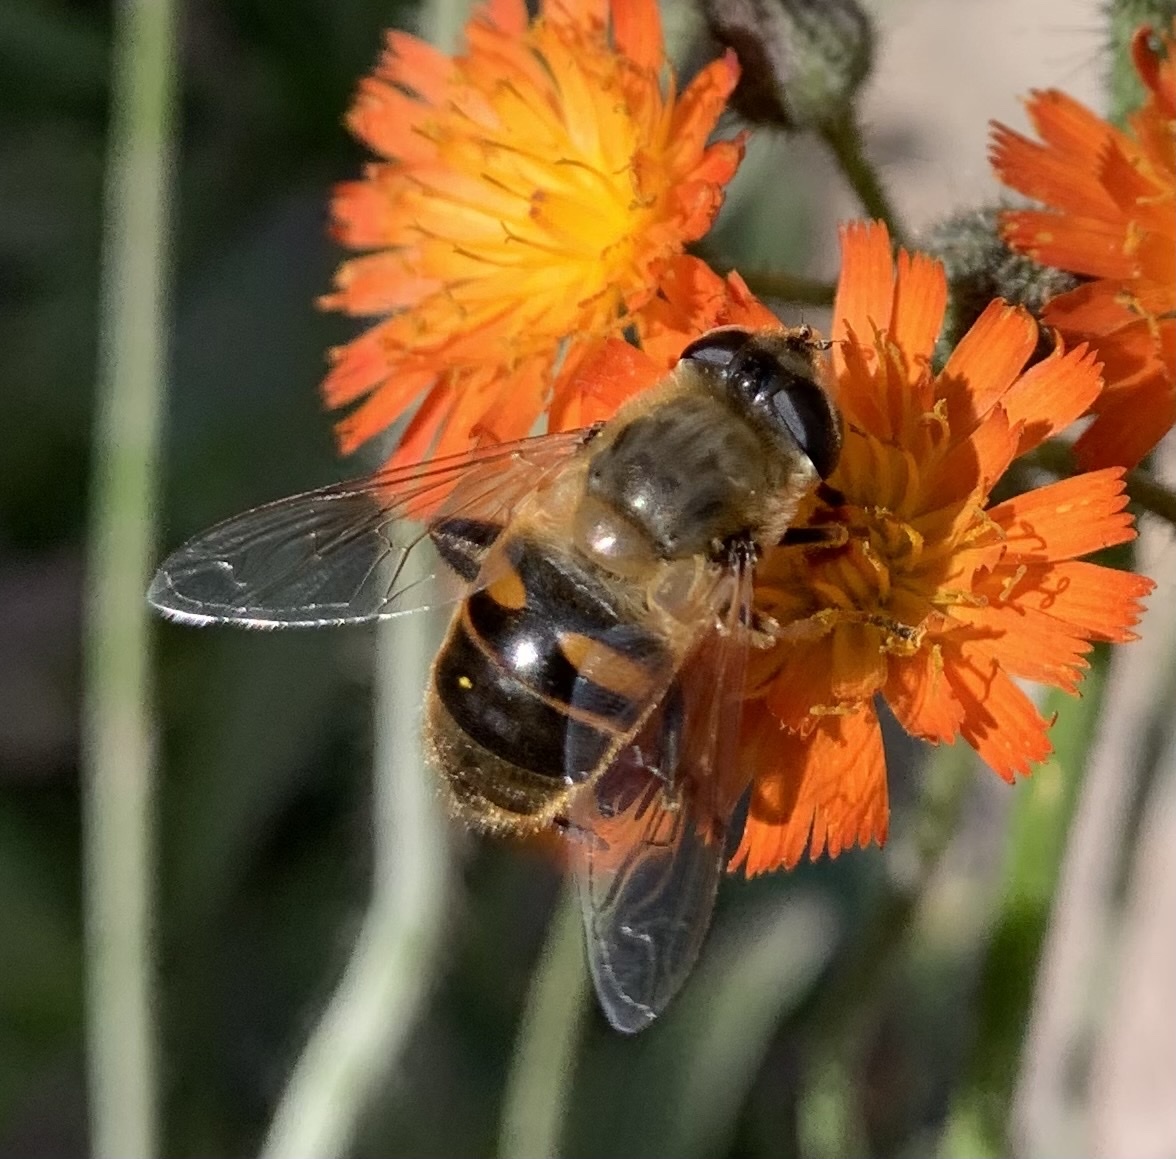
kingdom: Animalia
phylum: Arthropoda
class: Insecta
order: Diptera
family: Syrphidae
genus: Eristalis
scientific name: Eristalis tenax
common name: Drone fly
